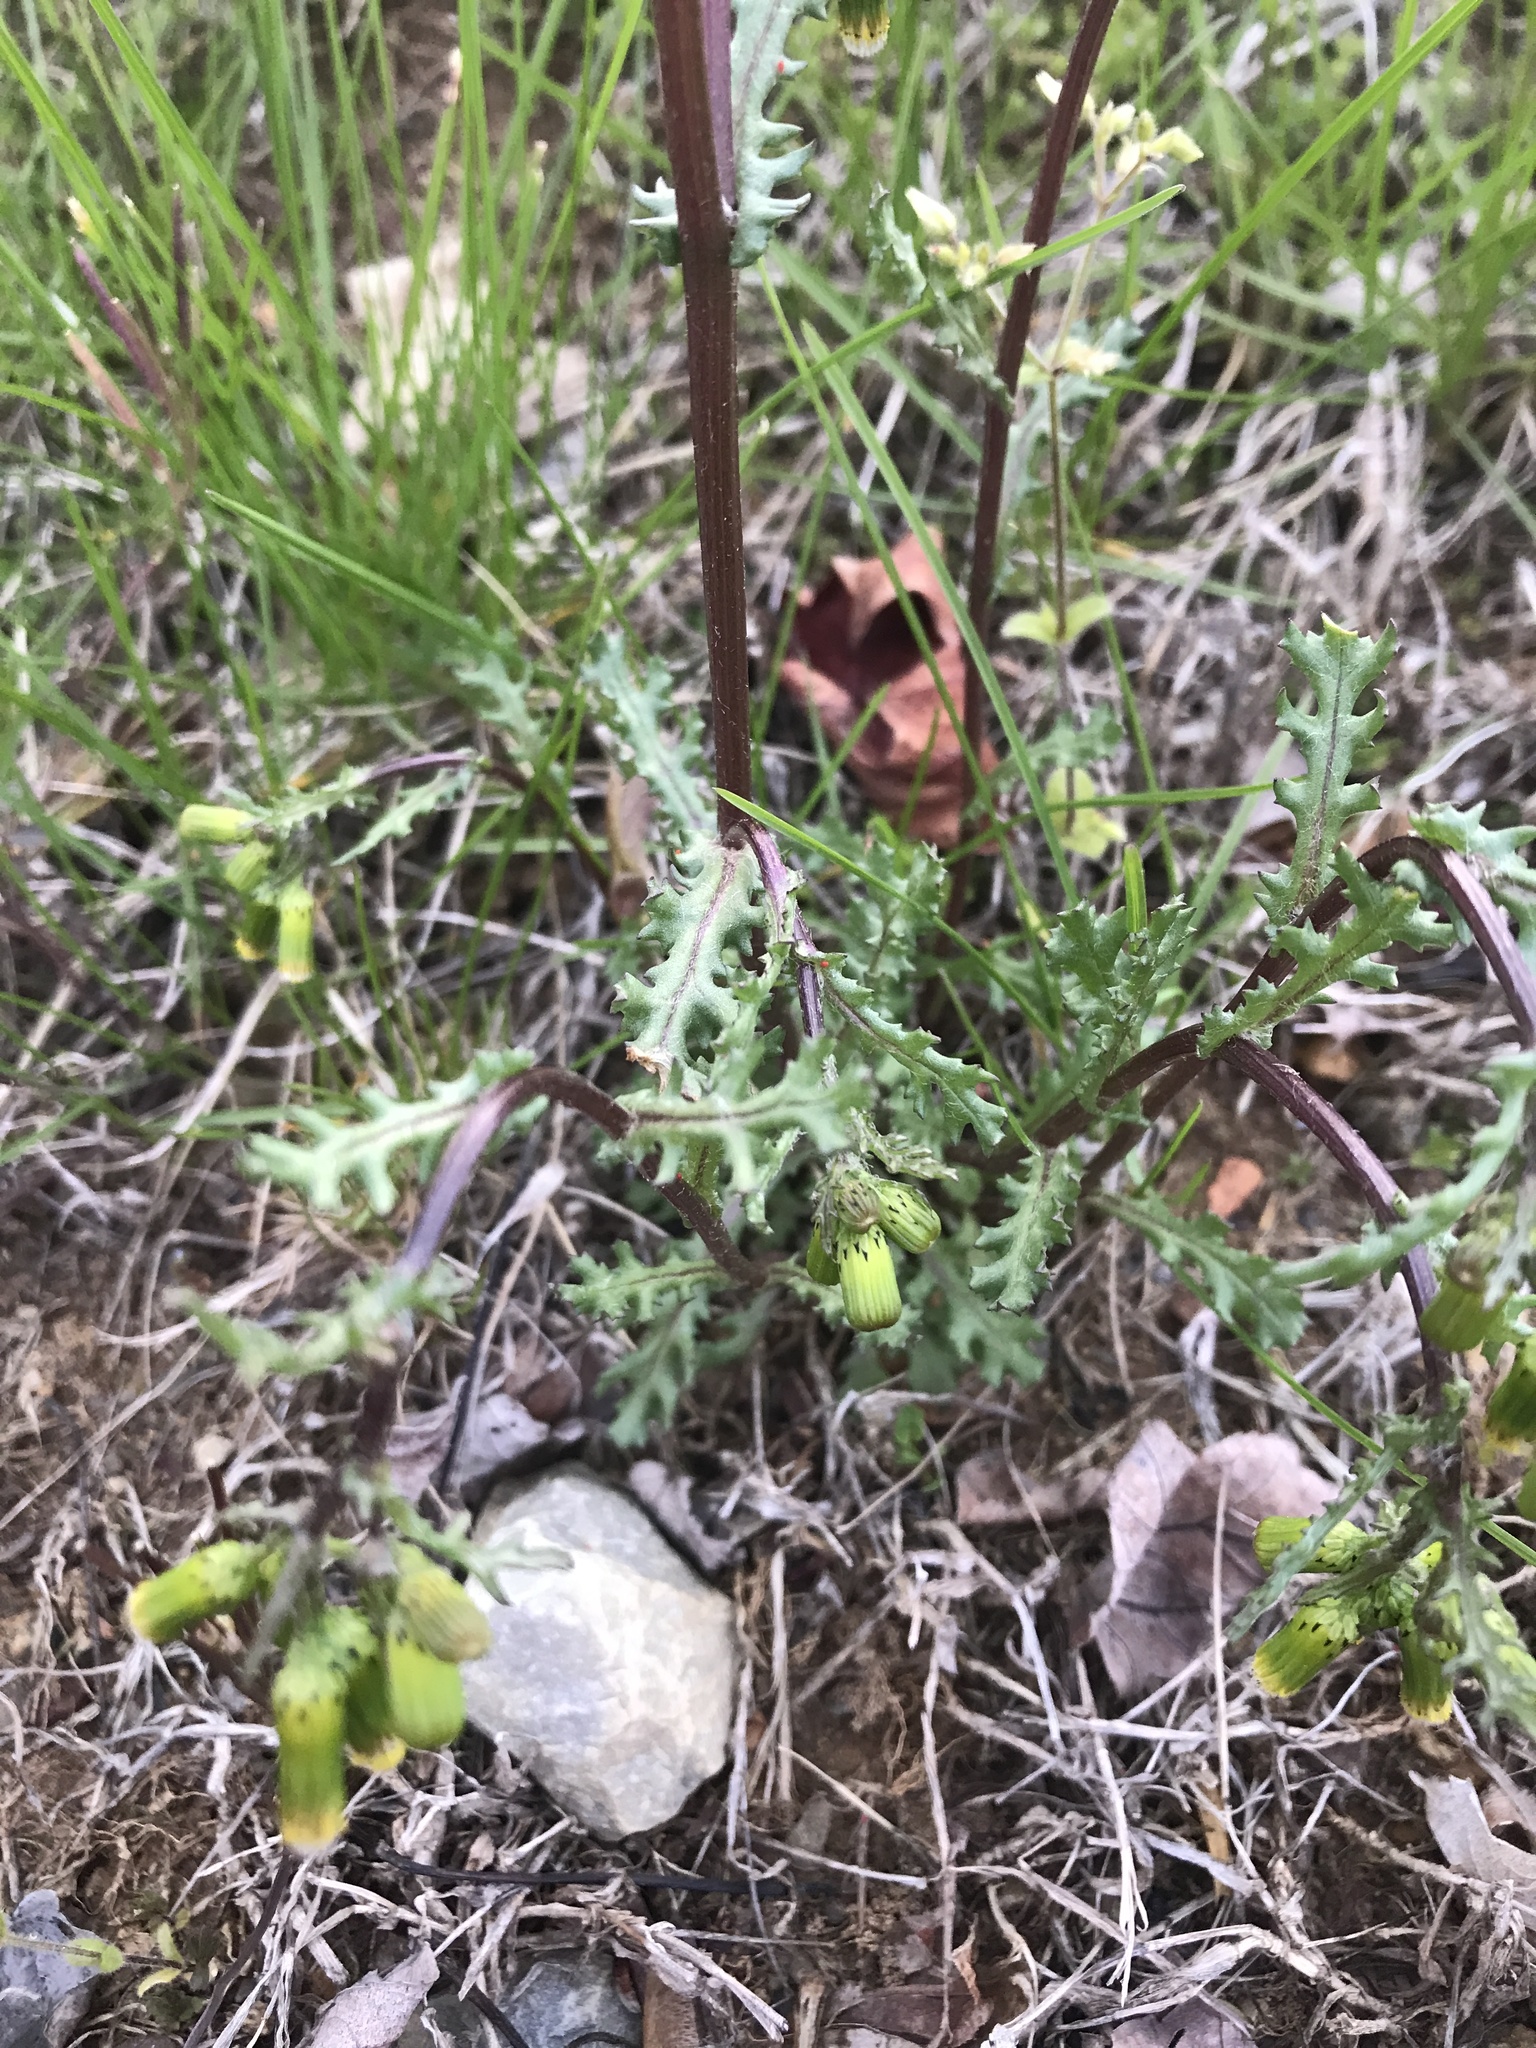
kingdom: Plantae
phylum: Tracheophyta
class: Magnoliopsida
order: Asterales
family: Asteraceae
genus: Senecio
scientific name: Senecio vulgaris
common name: Old-man-in-the-spring
